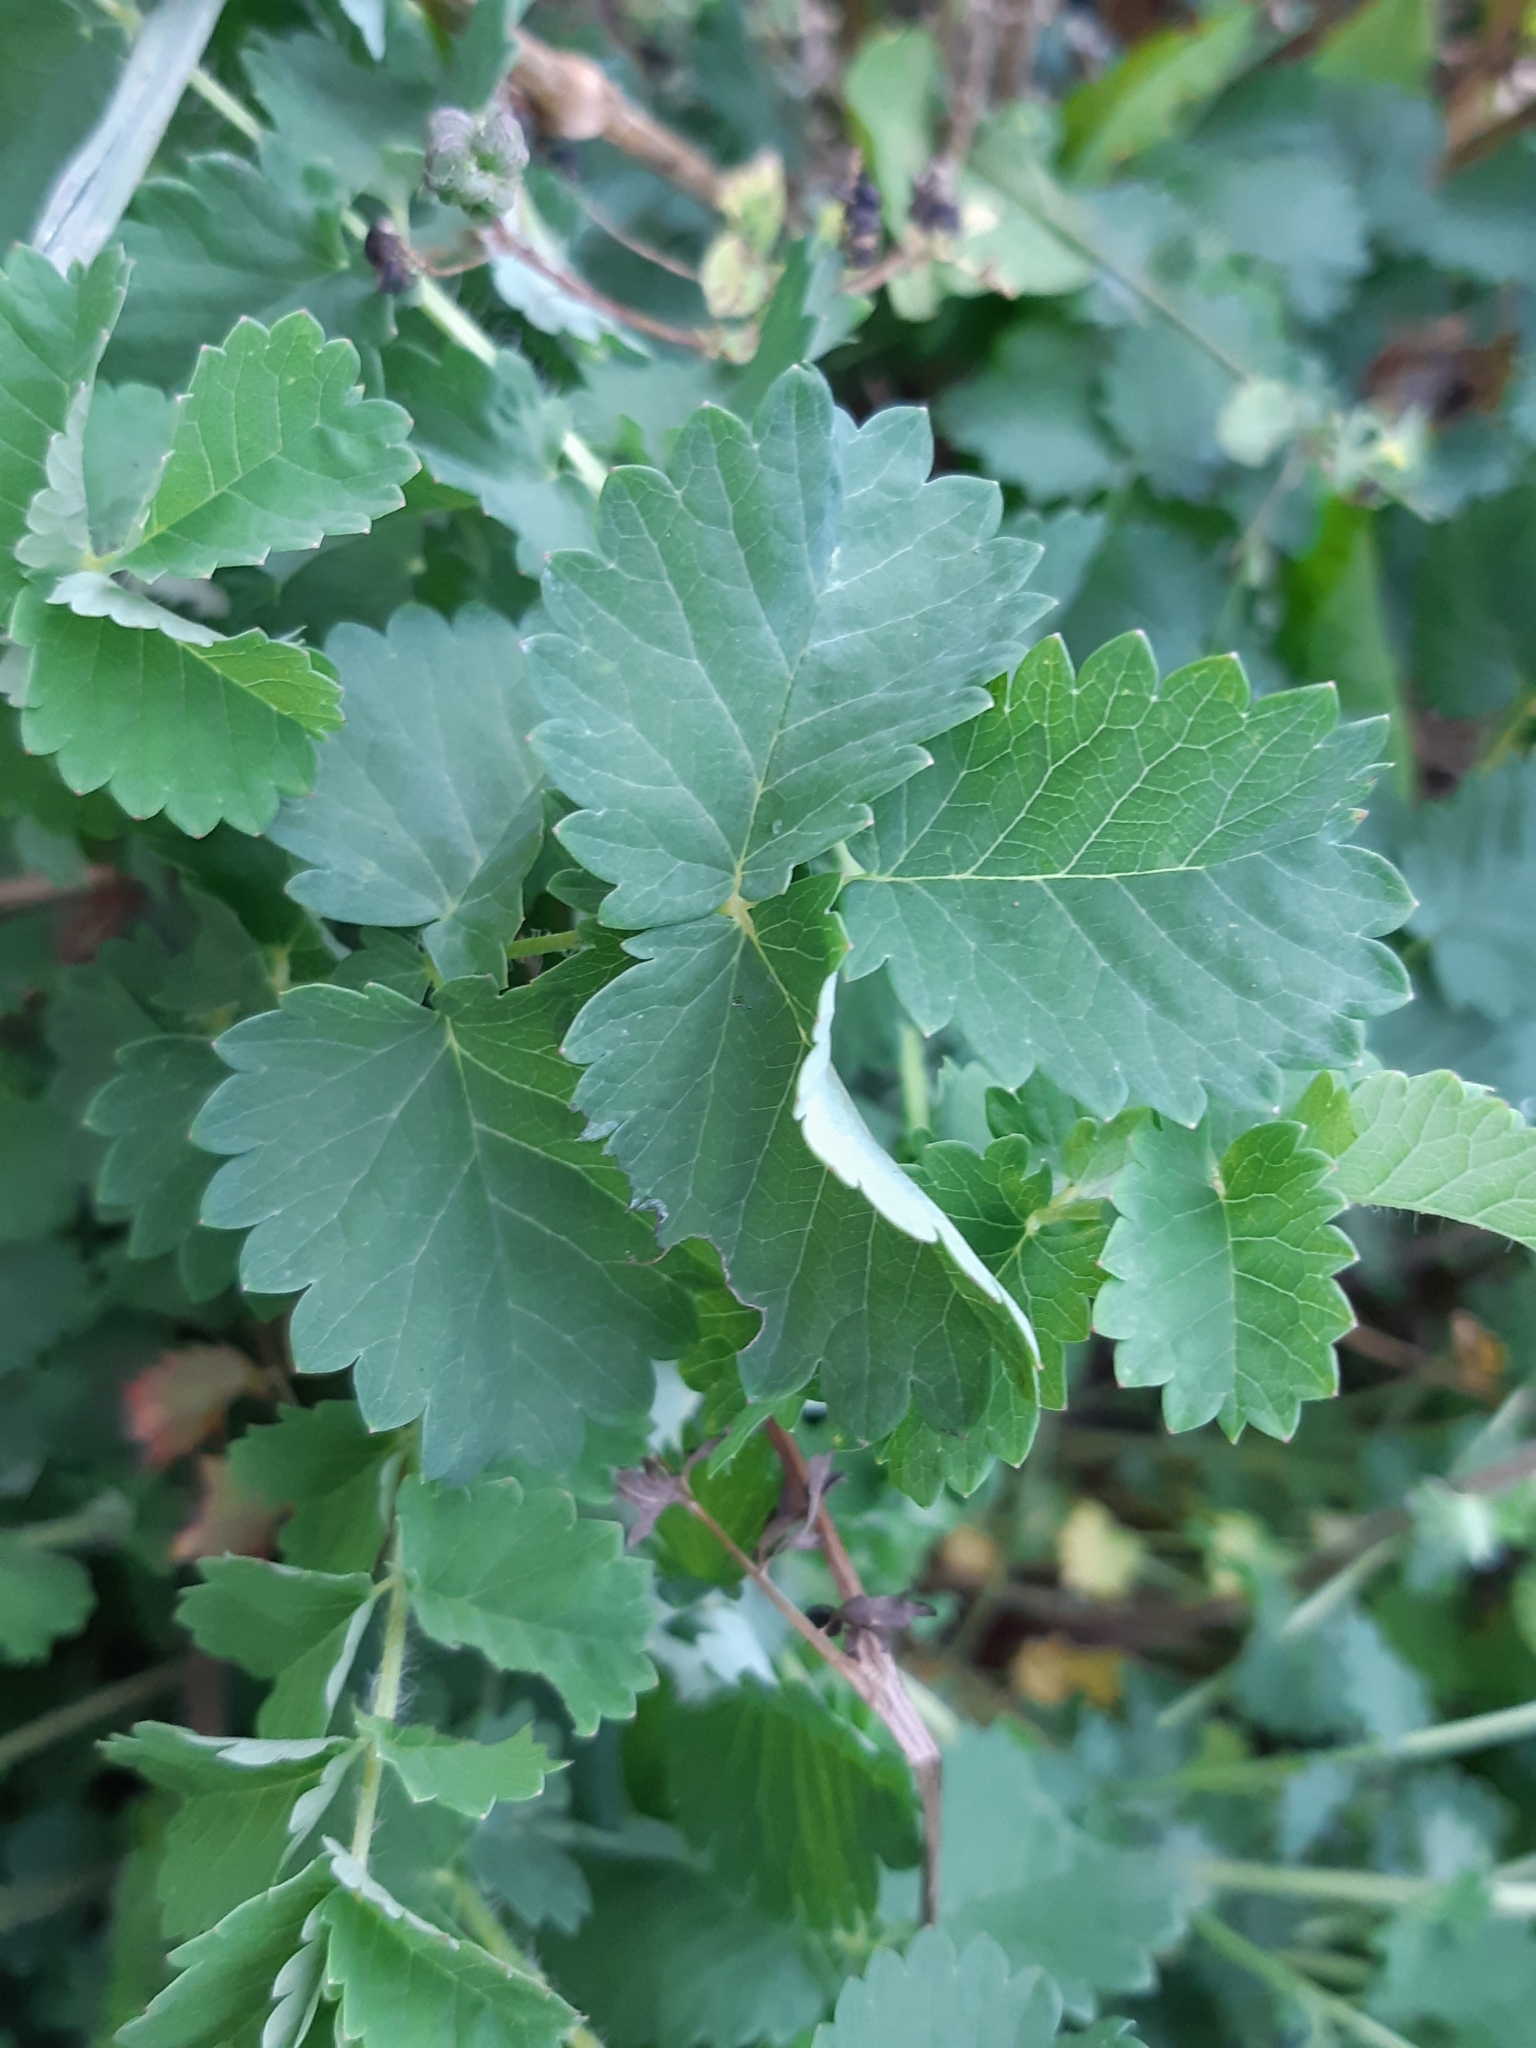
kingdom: Plantae
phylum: Tracheophyta
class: Magnoliopsida
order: Rosales
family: Rosaceae
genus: Poterium
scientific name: Poterium sanguisorba
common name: Salad burnet
